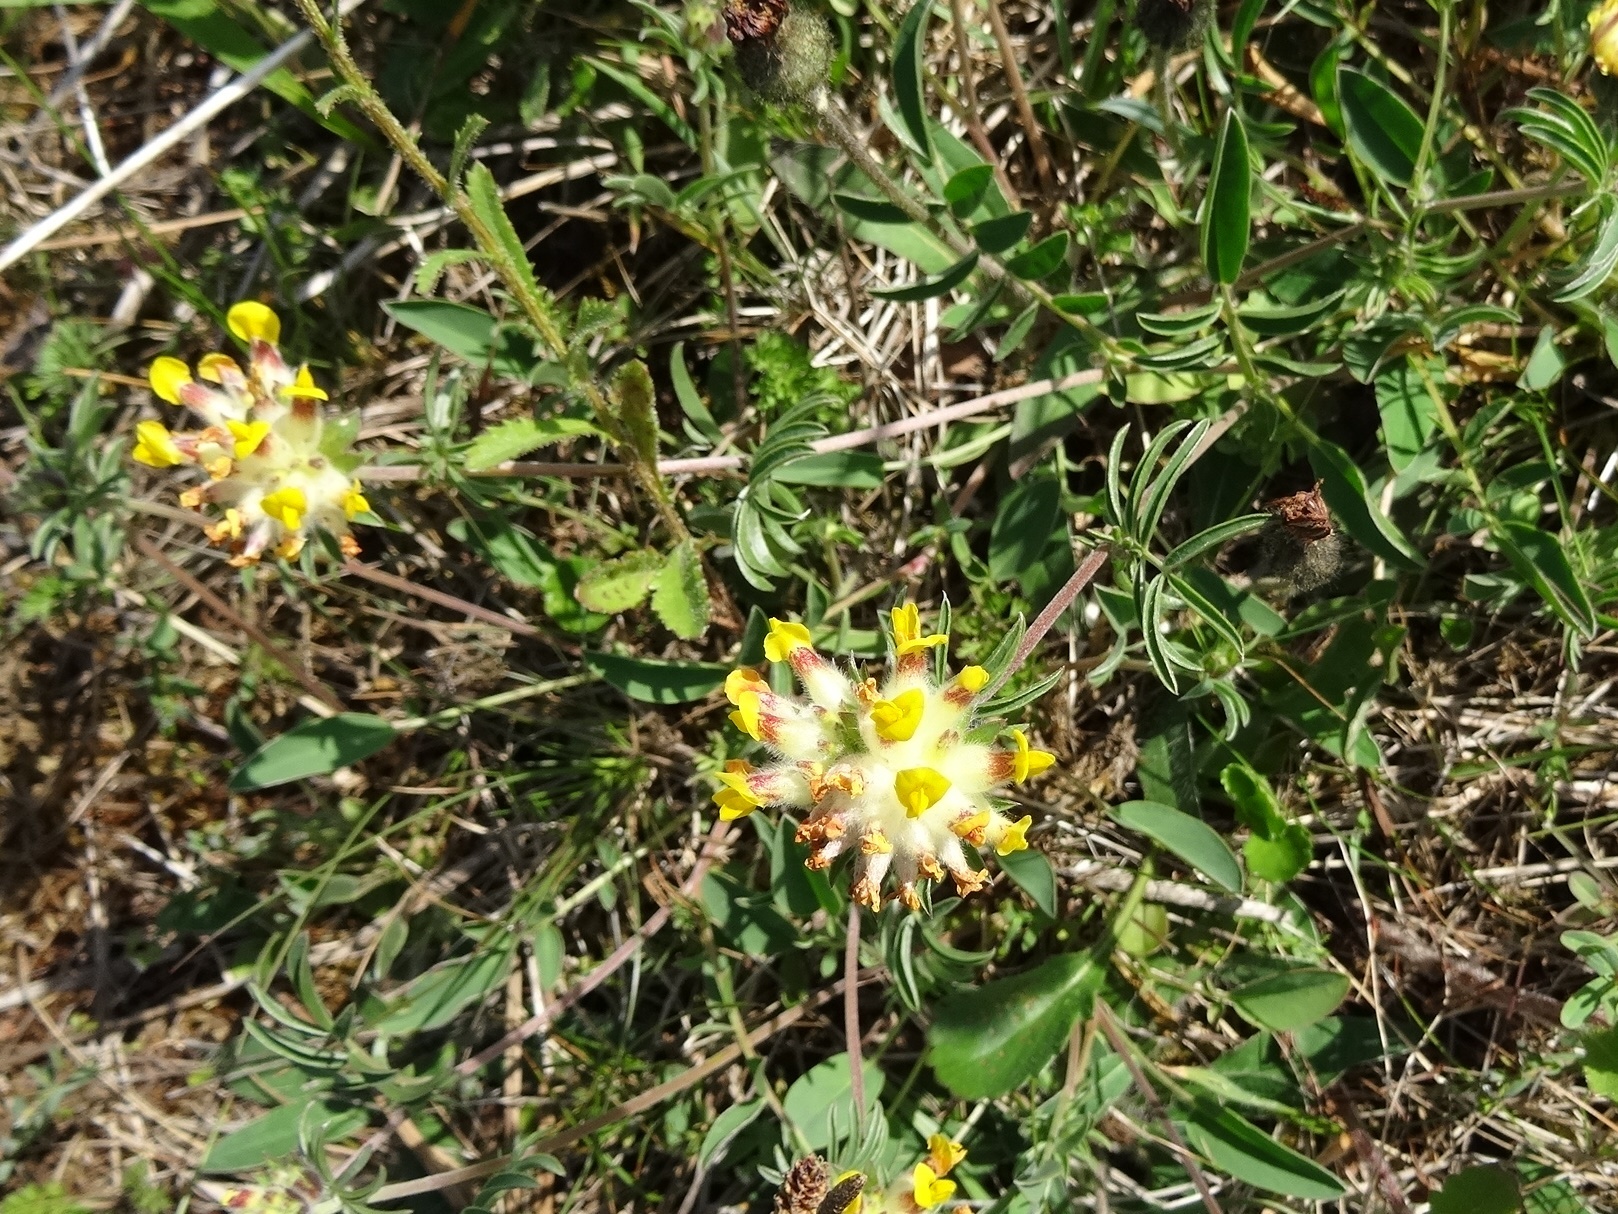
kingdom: Plantae
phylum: Tracheophyta
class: Magnoliopsida
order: Fabales
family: Fabaceae
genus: Anthyllis
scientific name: Anthyllis vulneraria
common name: Kidney vetch
